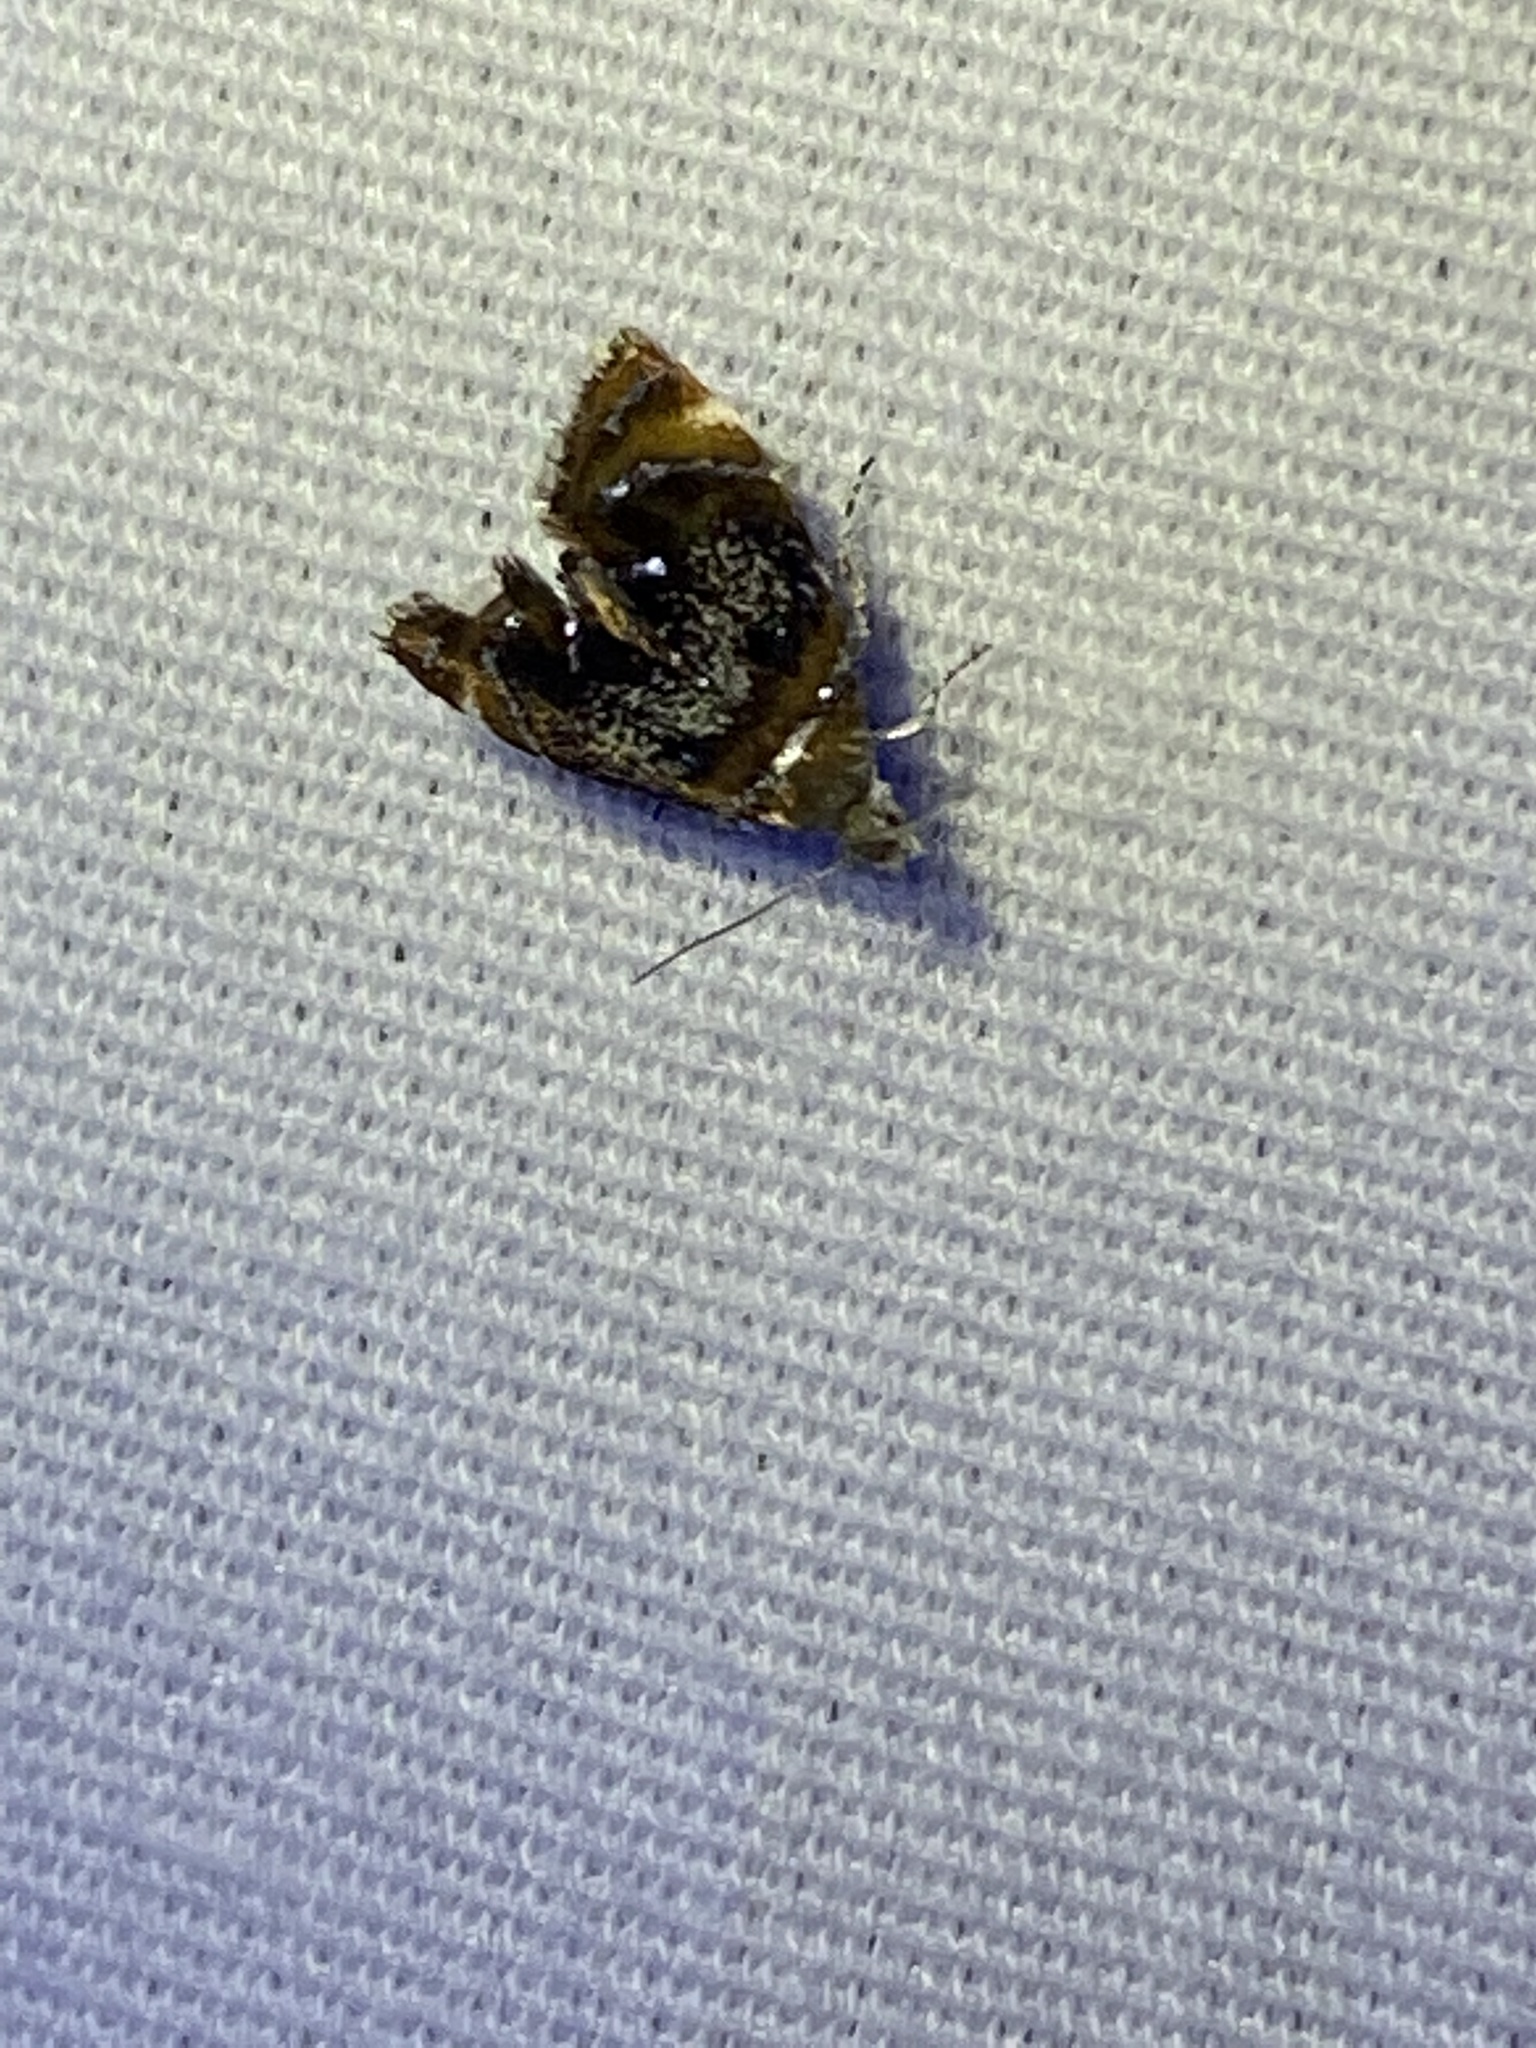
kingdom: Animalia
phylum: Arthropoda
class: Insecta
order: Lepidoptera
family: Choreutidae
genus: Prochoreutis
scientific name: Prochoreutis inflatella
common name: Skullcap skeletonizer moth
